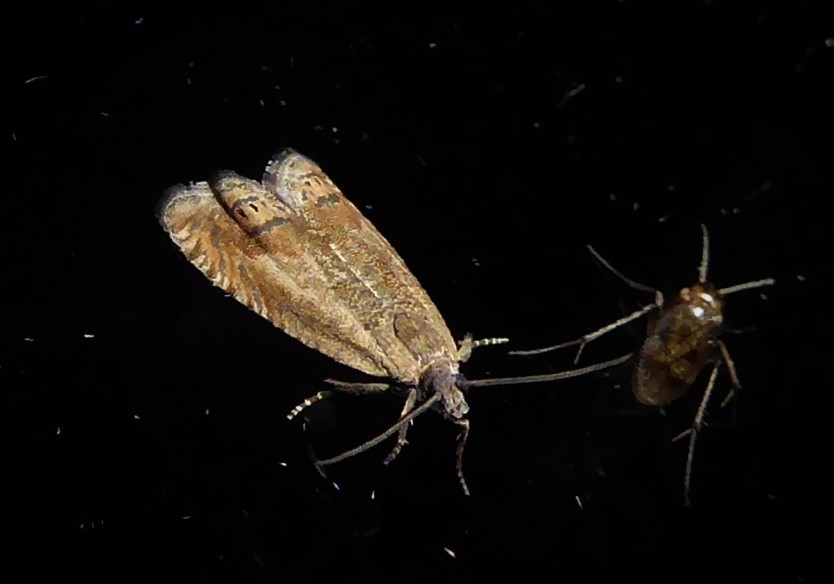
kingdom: Animalia
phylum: Arthropoda
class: Insecta
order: Lepidoptera
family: Tortricidae
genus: Cydia
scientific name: Cydia succedana
